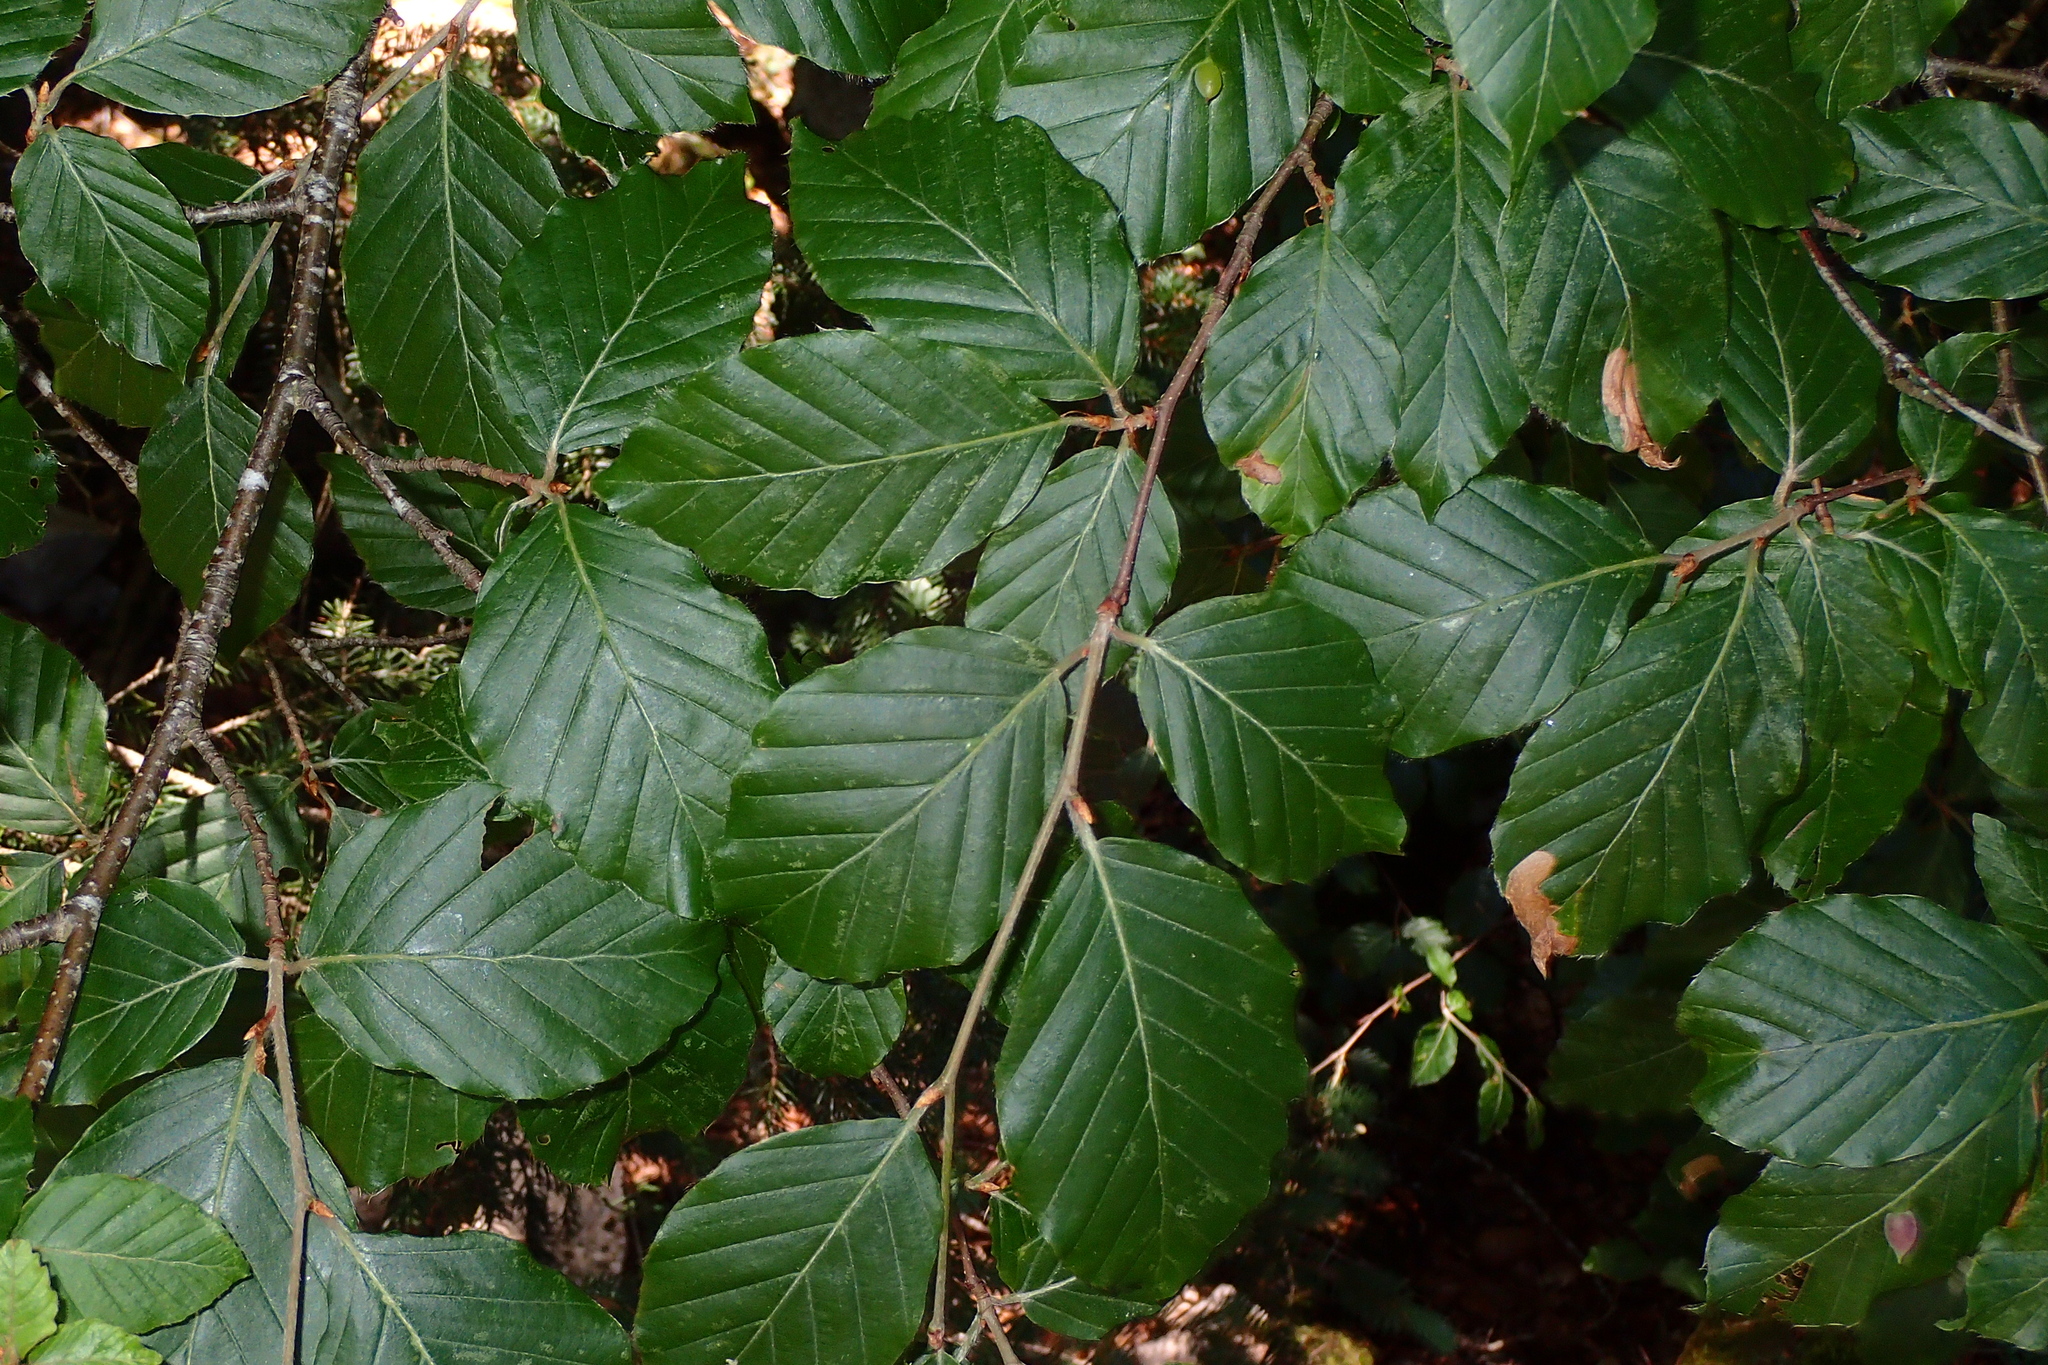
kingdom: Plantae
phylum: Tracheophyta
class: Magnoliopsida
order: Fagales
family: Fagaceae
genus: Fagus
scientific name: Fagus sylvatica
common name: Beech
